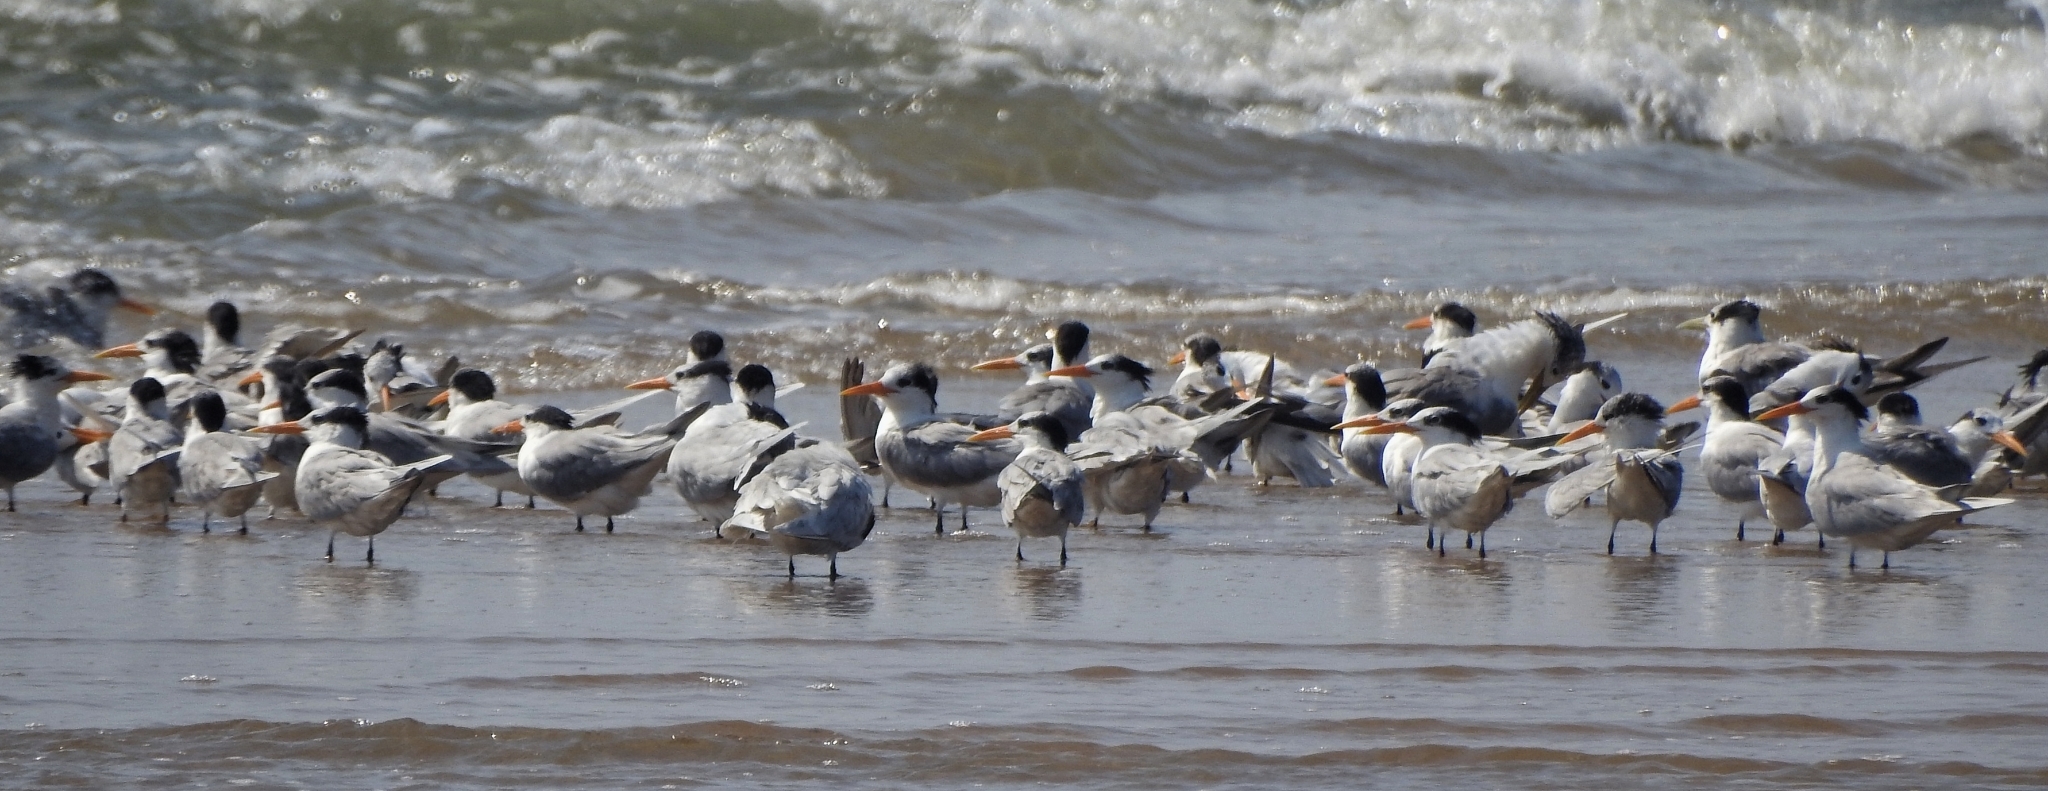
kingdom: Animalia
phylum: Chordata
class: Aves
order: Charadriiformes
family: Laridae
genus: Thalasseus
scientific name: Thalasseus bengalensis
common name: Lesser crested tern
